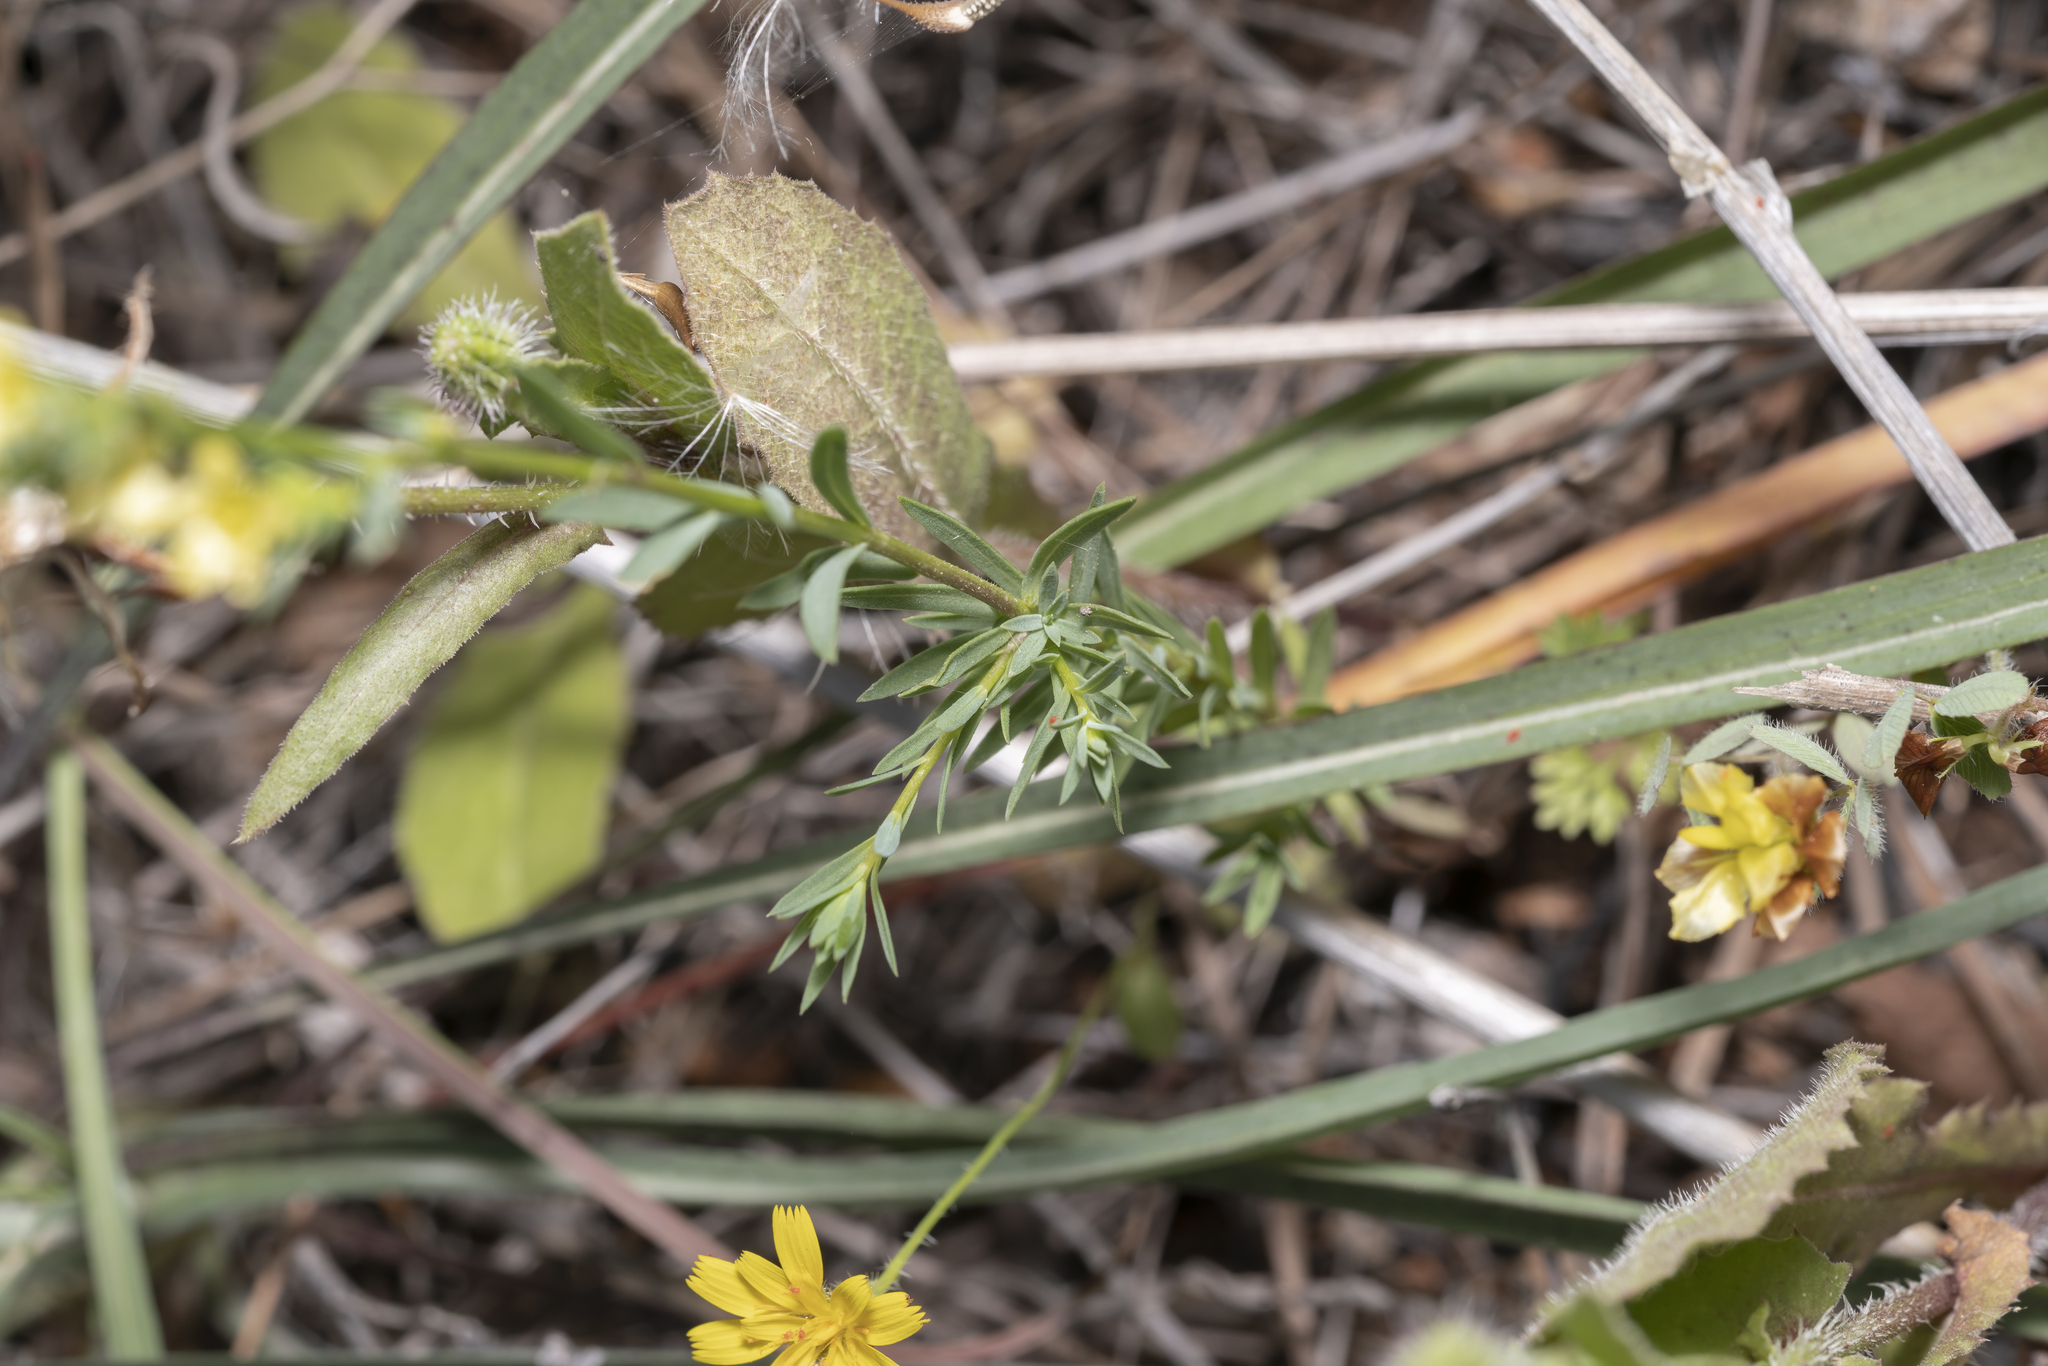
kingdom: Plantae
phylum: Tracheophyta
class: Magnoliopsida
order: Malpighiales
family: Linaceae
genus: Linum
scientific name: Linum strictum
